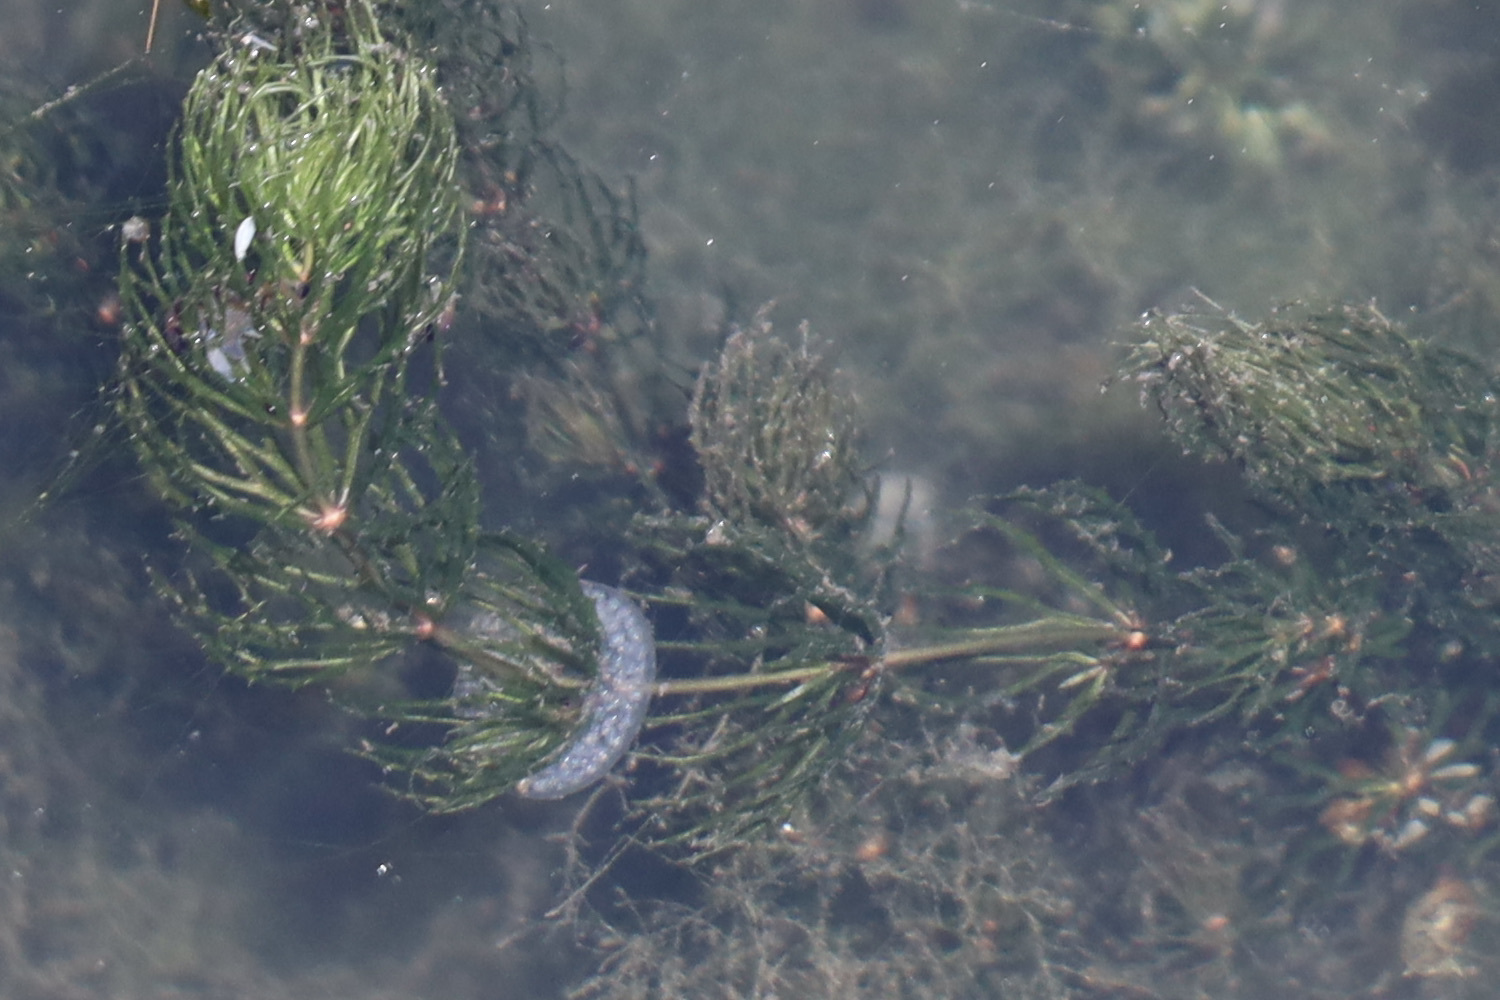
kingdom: Plantae
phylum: Tracheophyta
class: Magnoliopsida
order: Ceratophyllales
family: Ceratophyllaceae
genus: Ceratophyllum
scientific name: Ceratophyllum demersum
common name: Rigid hornwort
